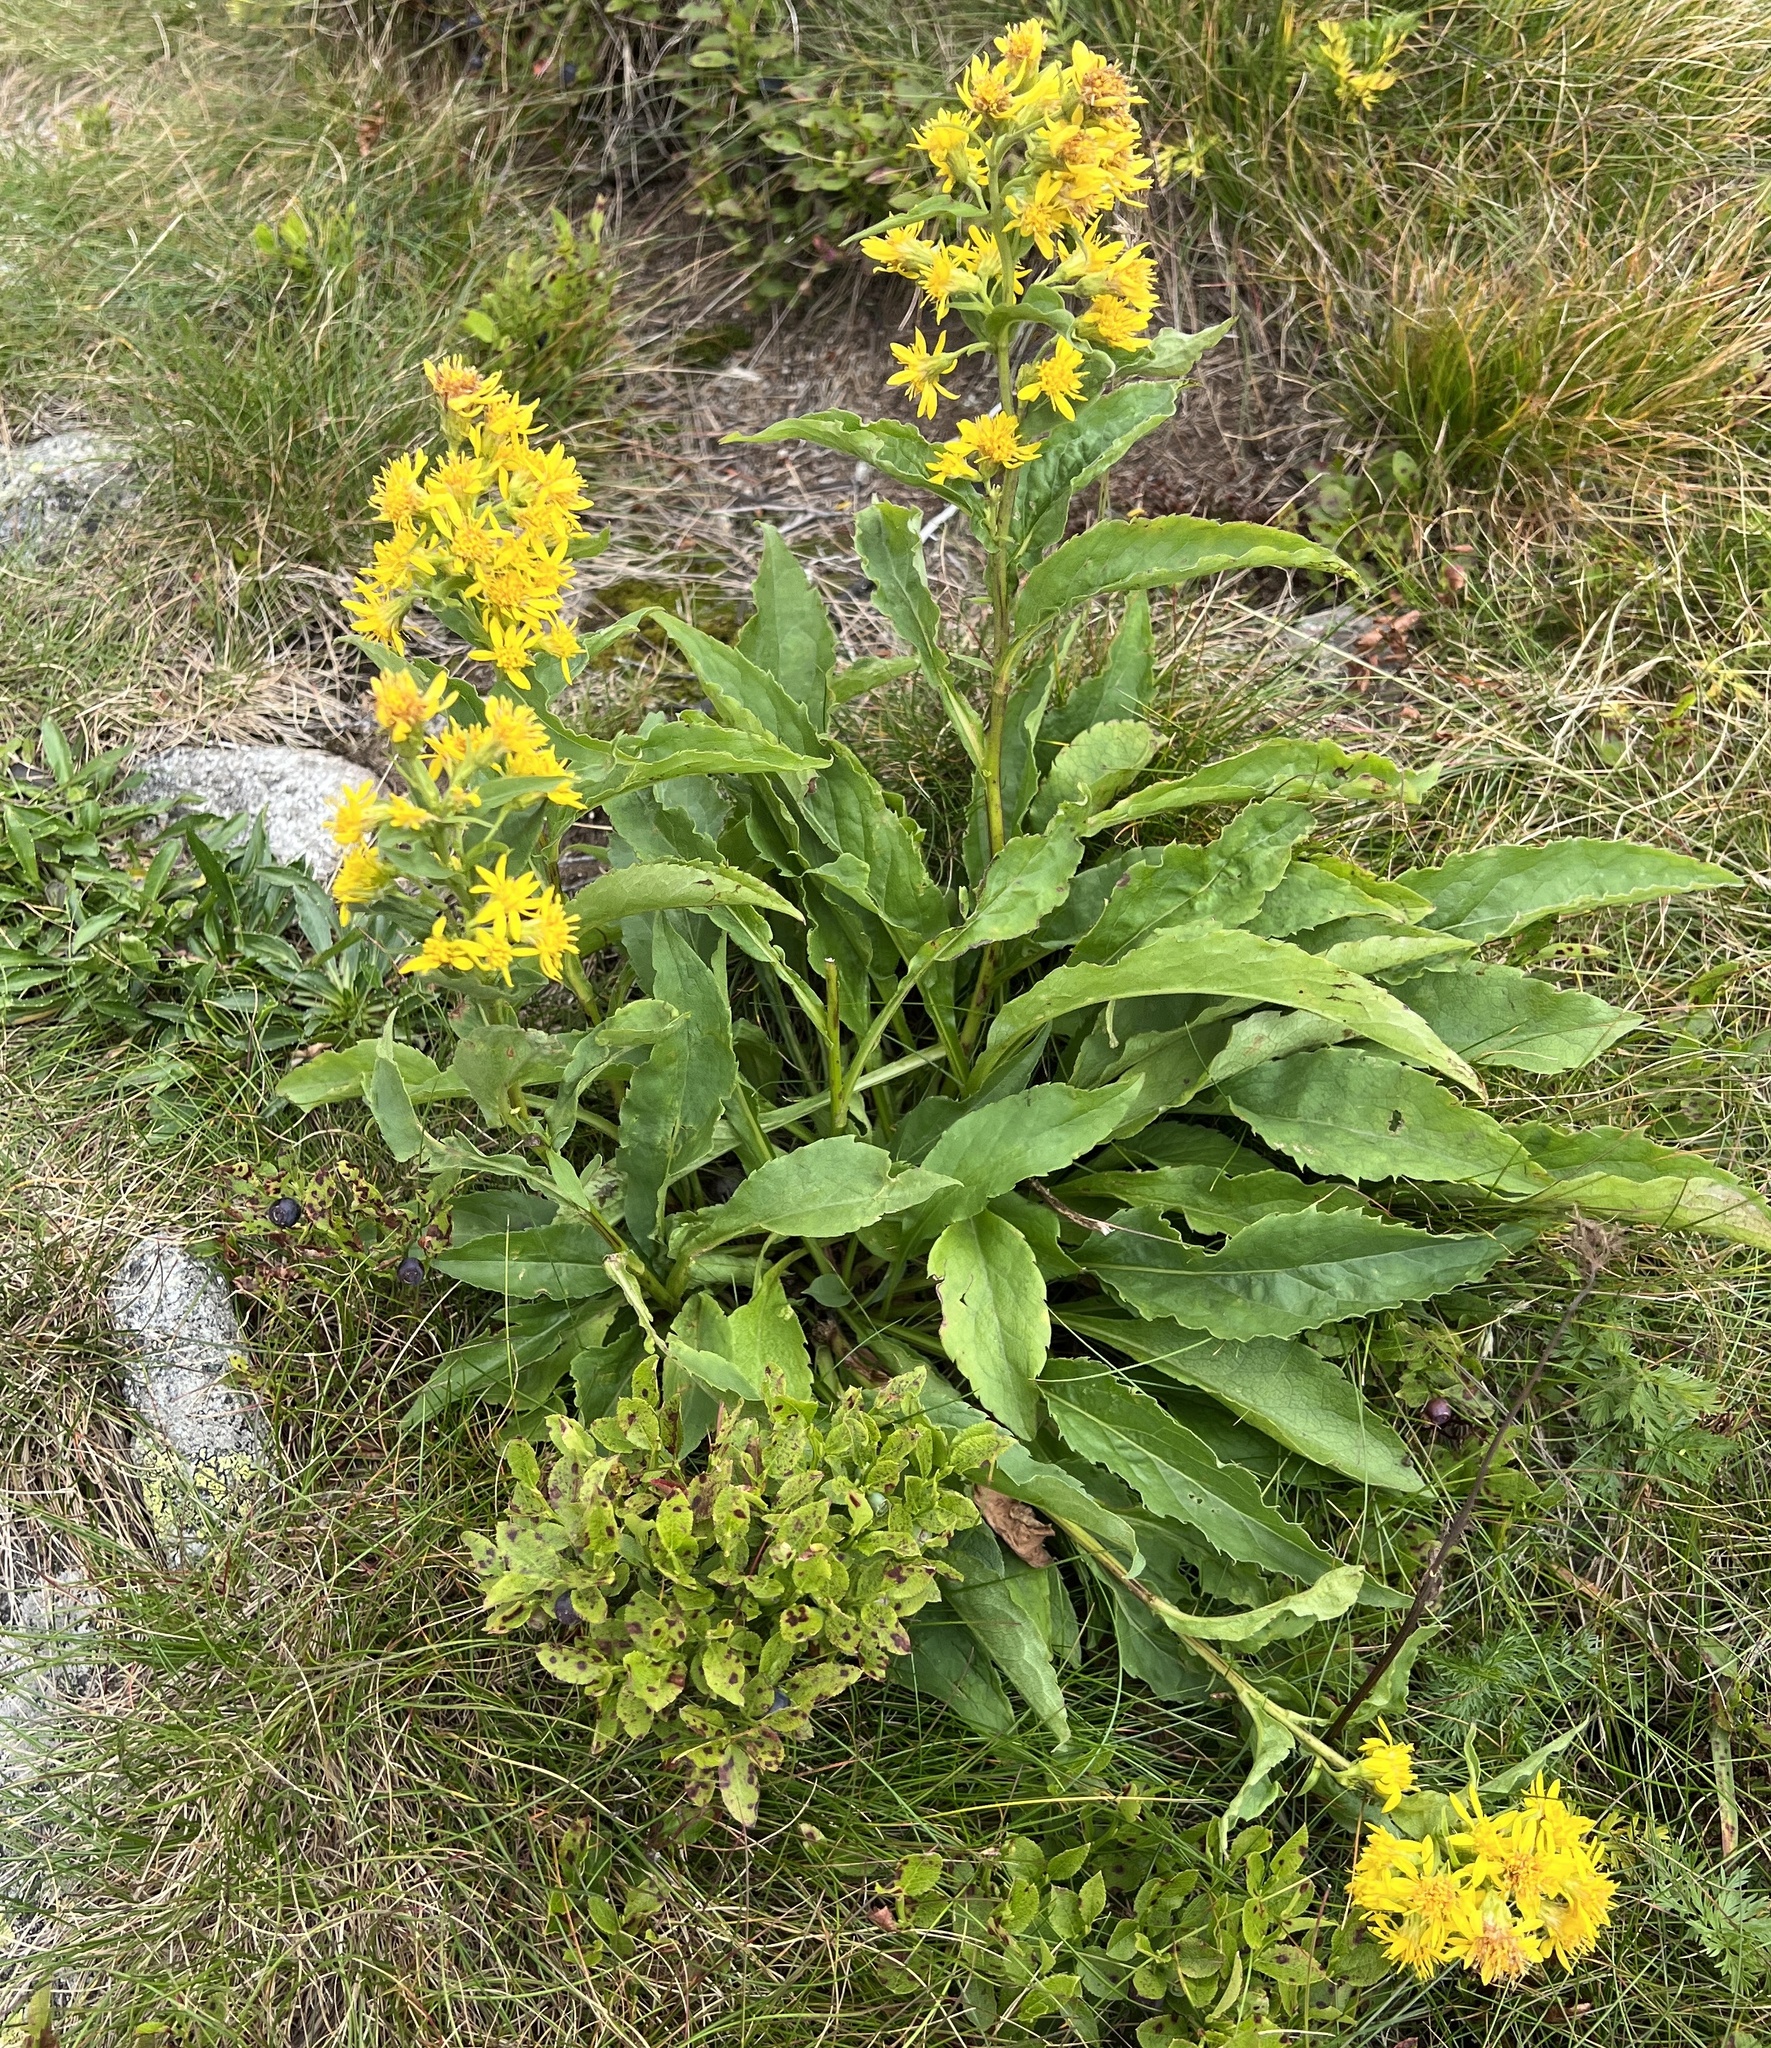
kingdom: Plantae
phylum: Tracheophyta
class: Magnoliopsida
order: Asterales
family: Asteraceae
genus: Solidago
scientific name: Solidago virgaurea
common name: Goldenrod
